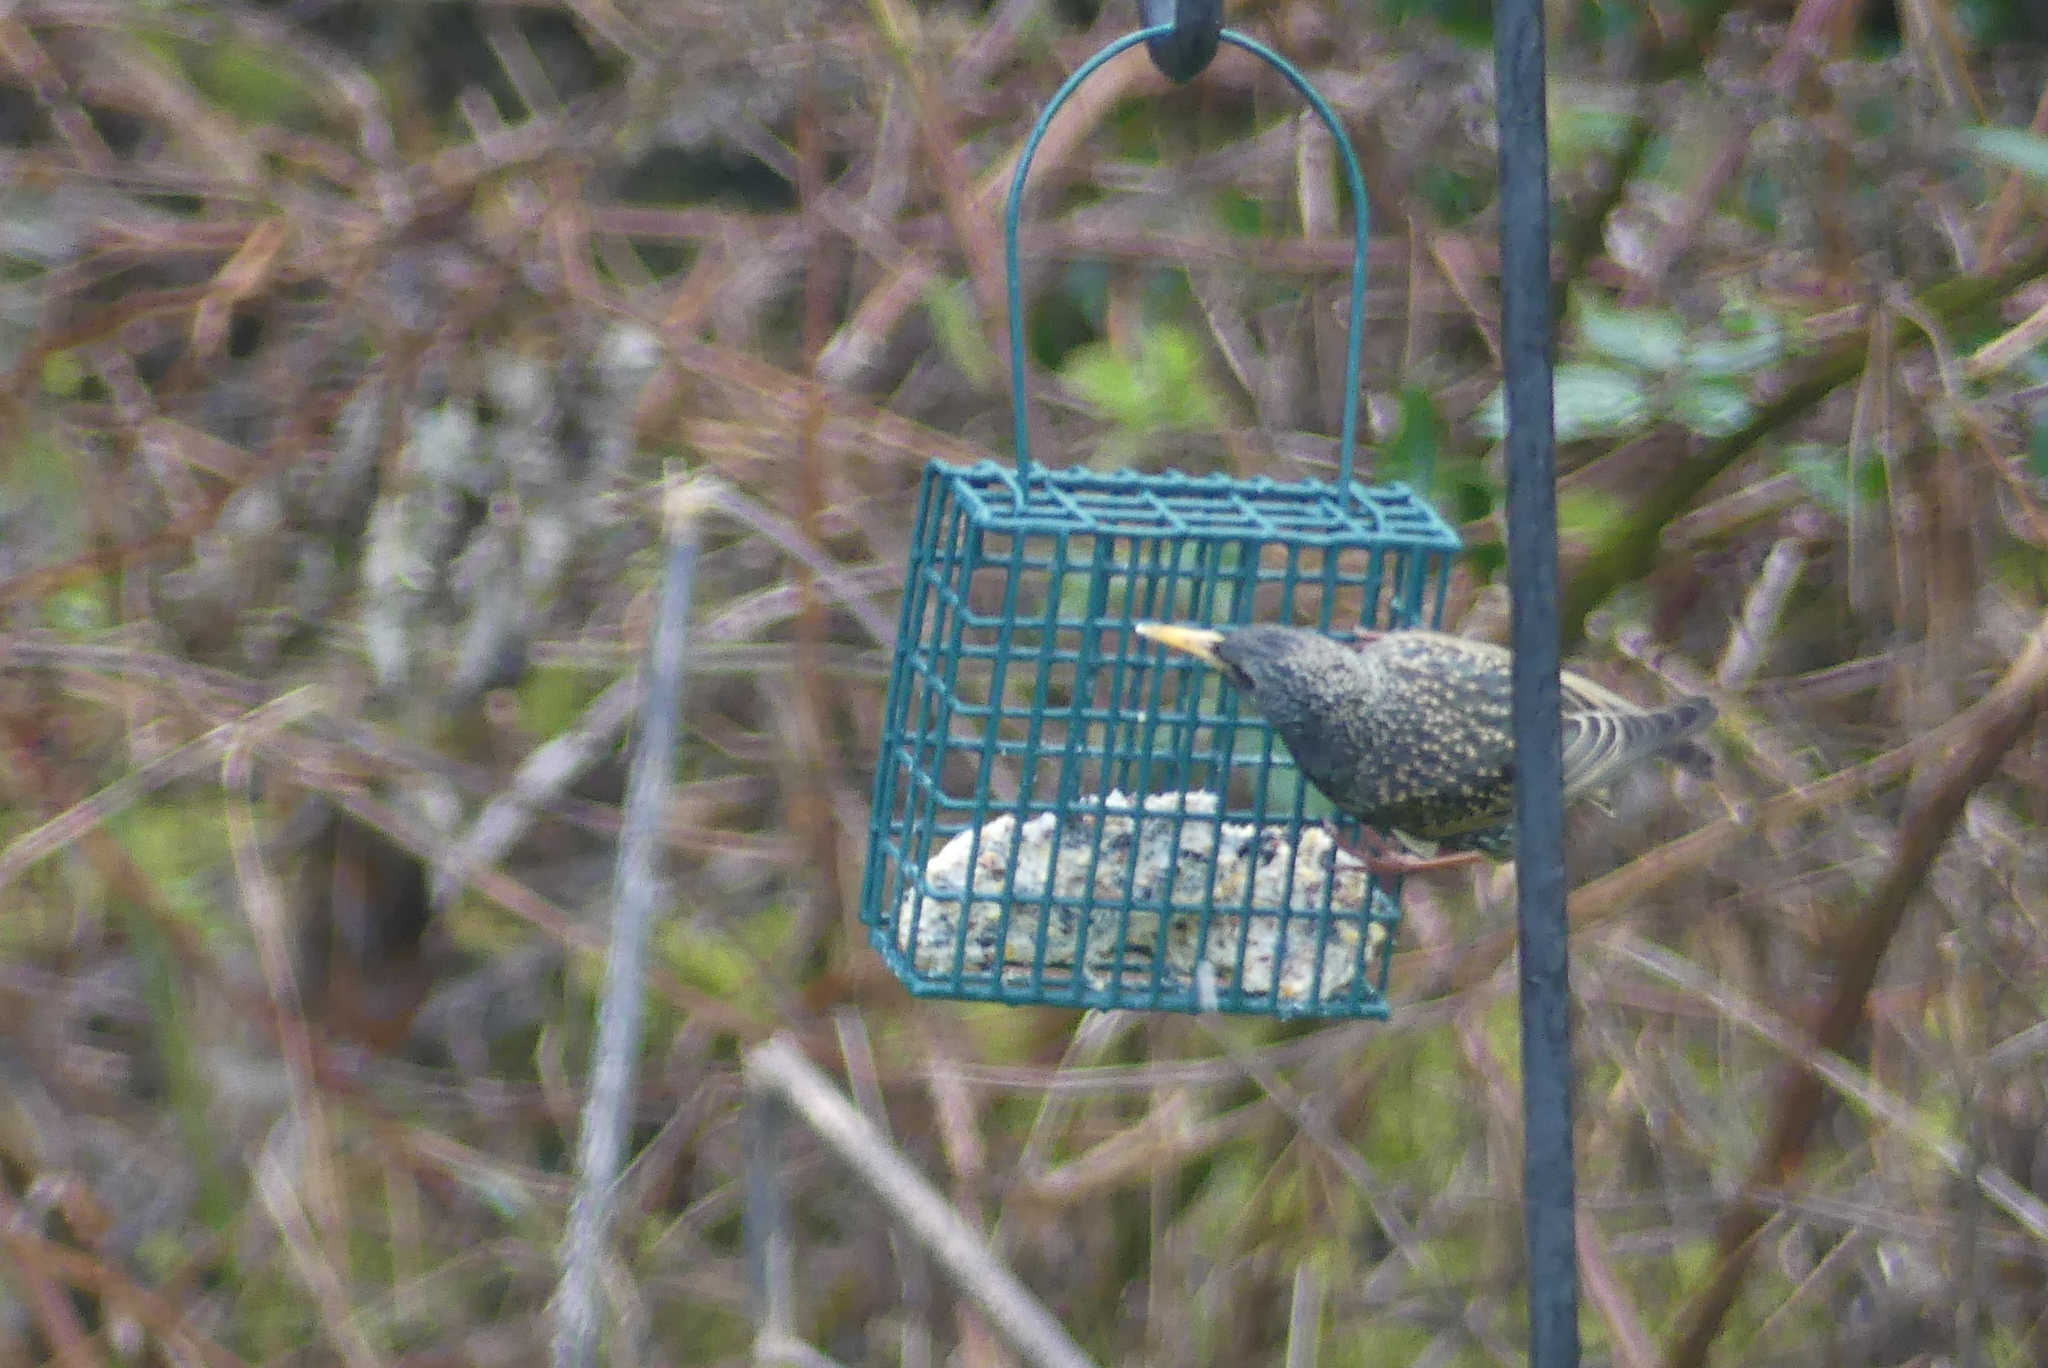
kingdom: Animalia
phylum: Chordata
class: Aves
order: Passeriformes
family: Sturnidae
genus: Sturnus
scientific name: Sturnus vulgaris
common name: Common starling
